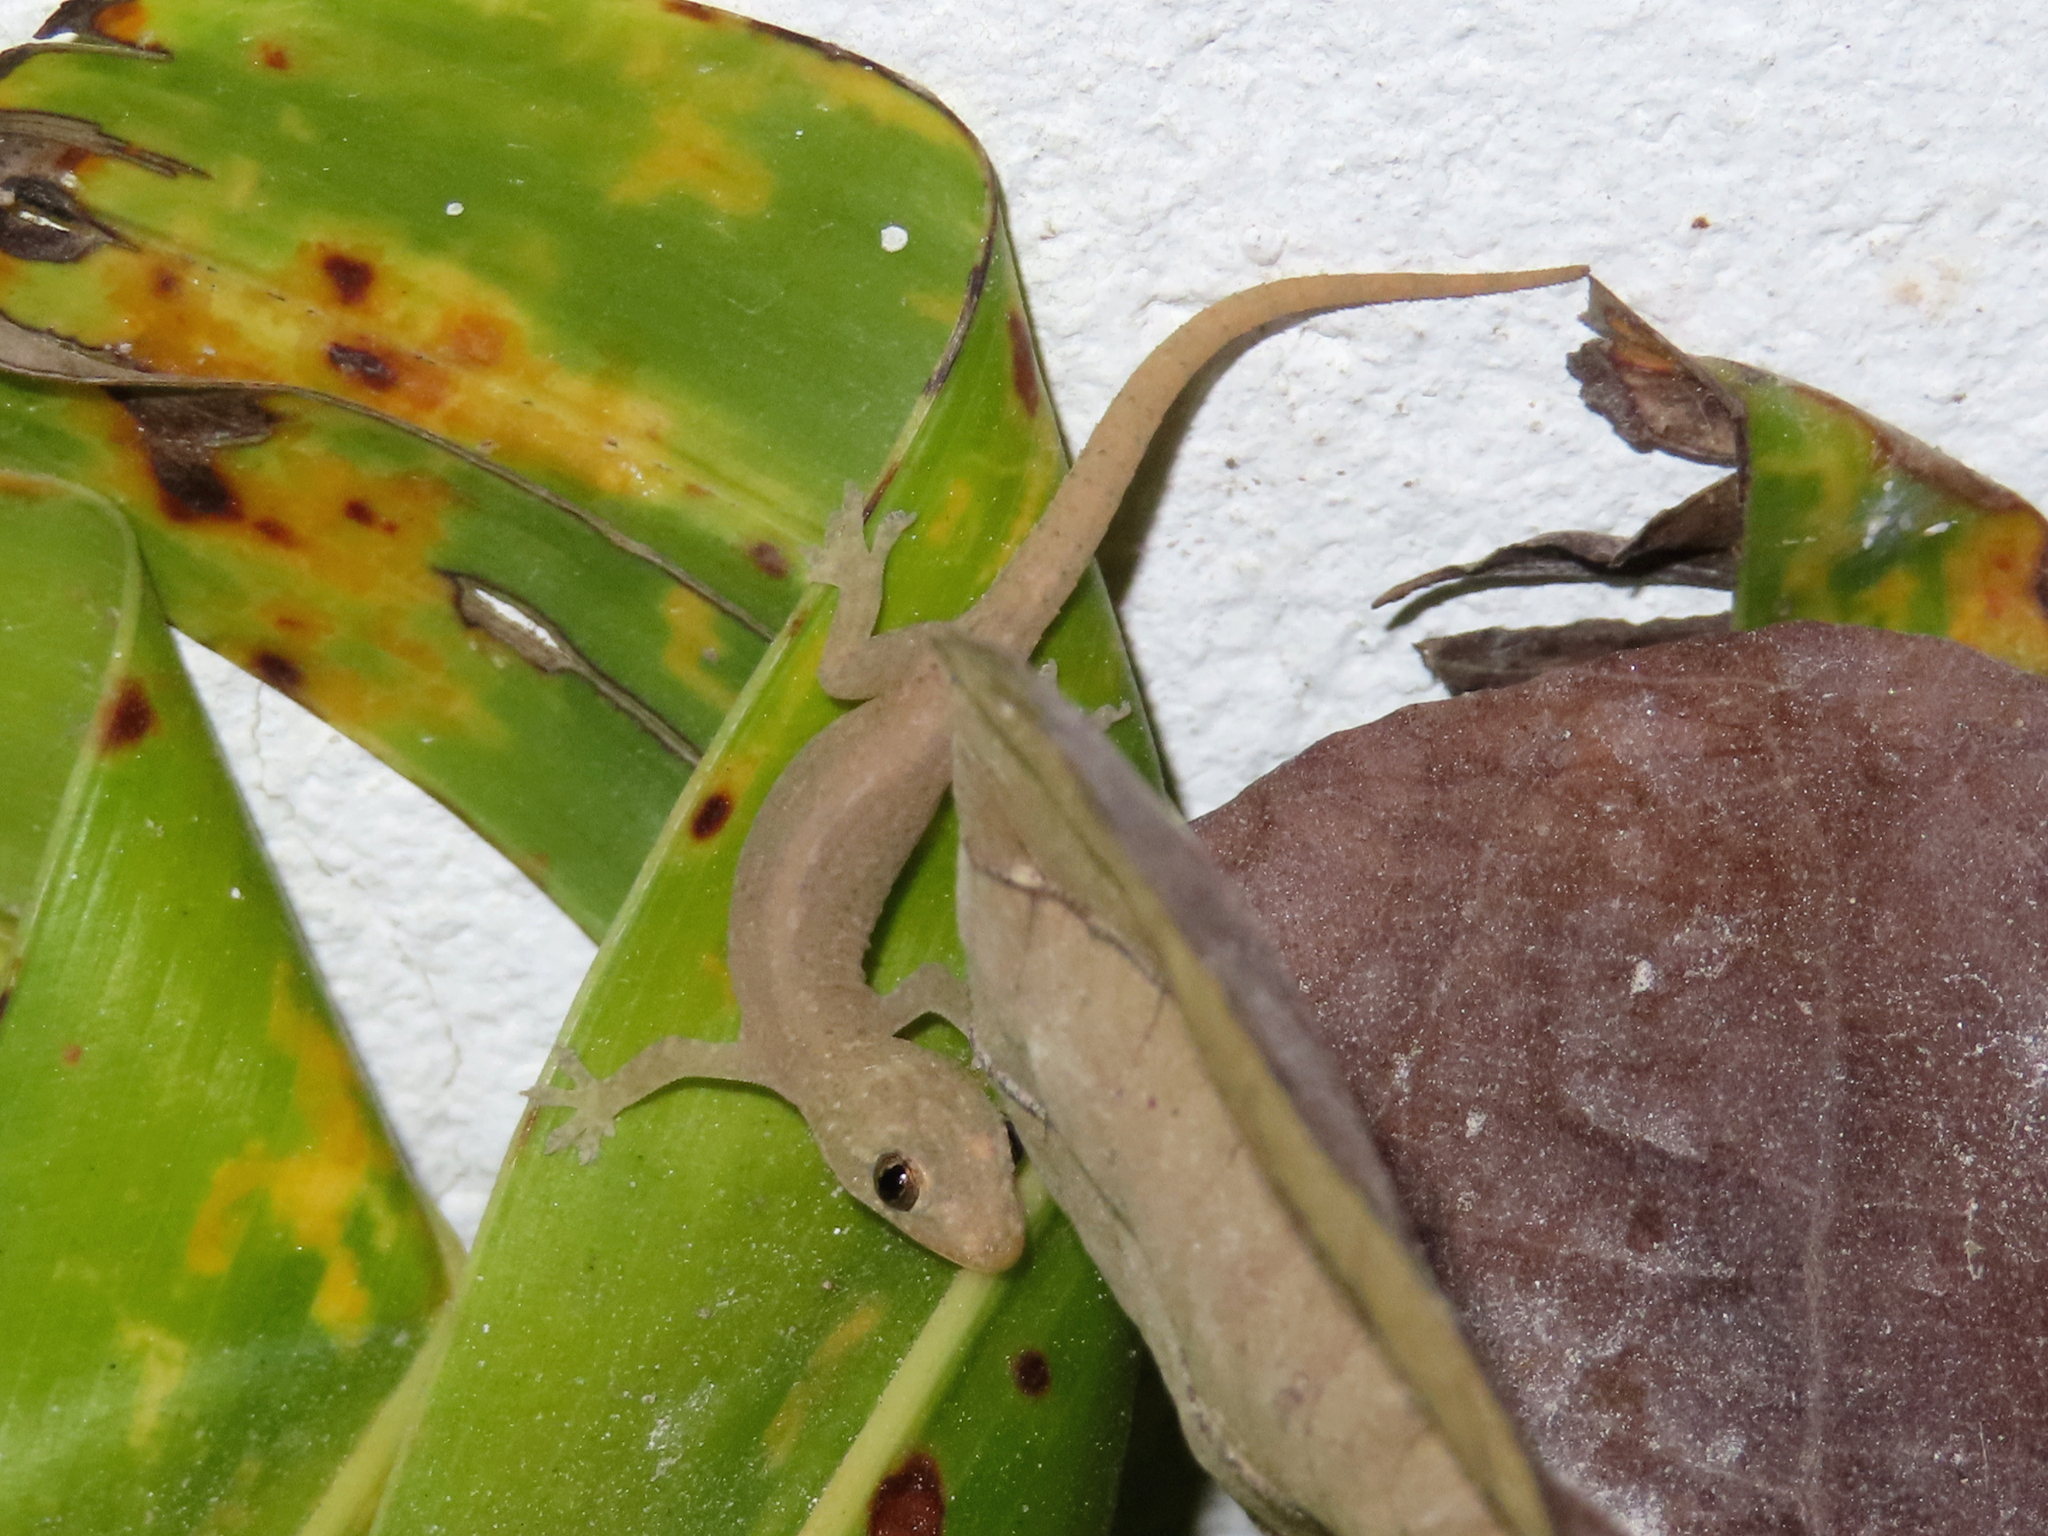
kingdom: Animalia
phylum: Chordata
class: Squamata
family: Gekkonidae
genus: Hemidactylus
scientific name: Hemidactylus frenatus
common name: Common house gecko
